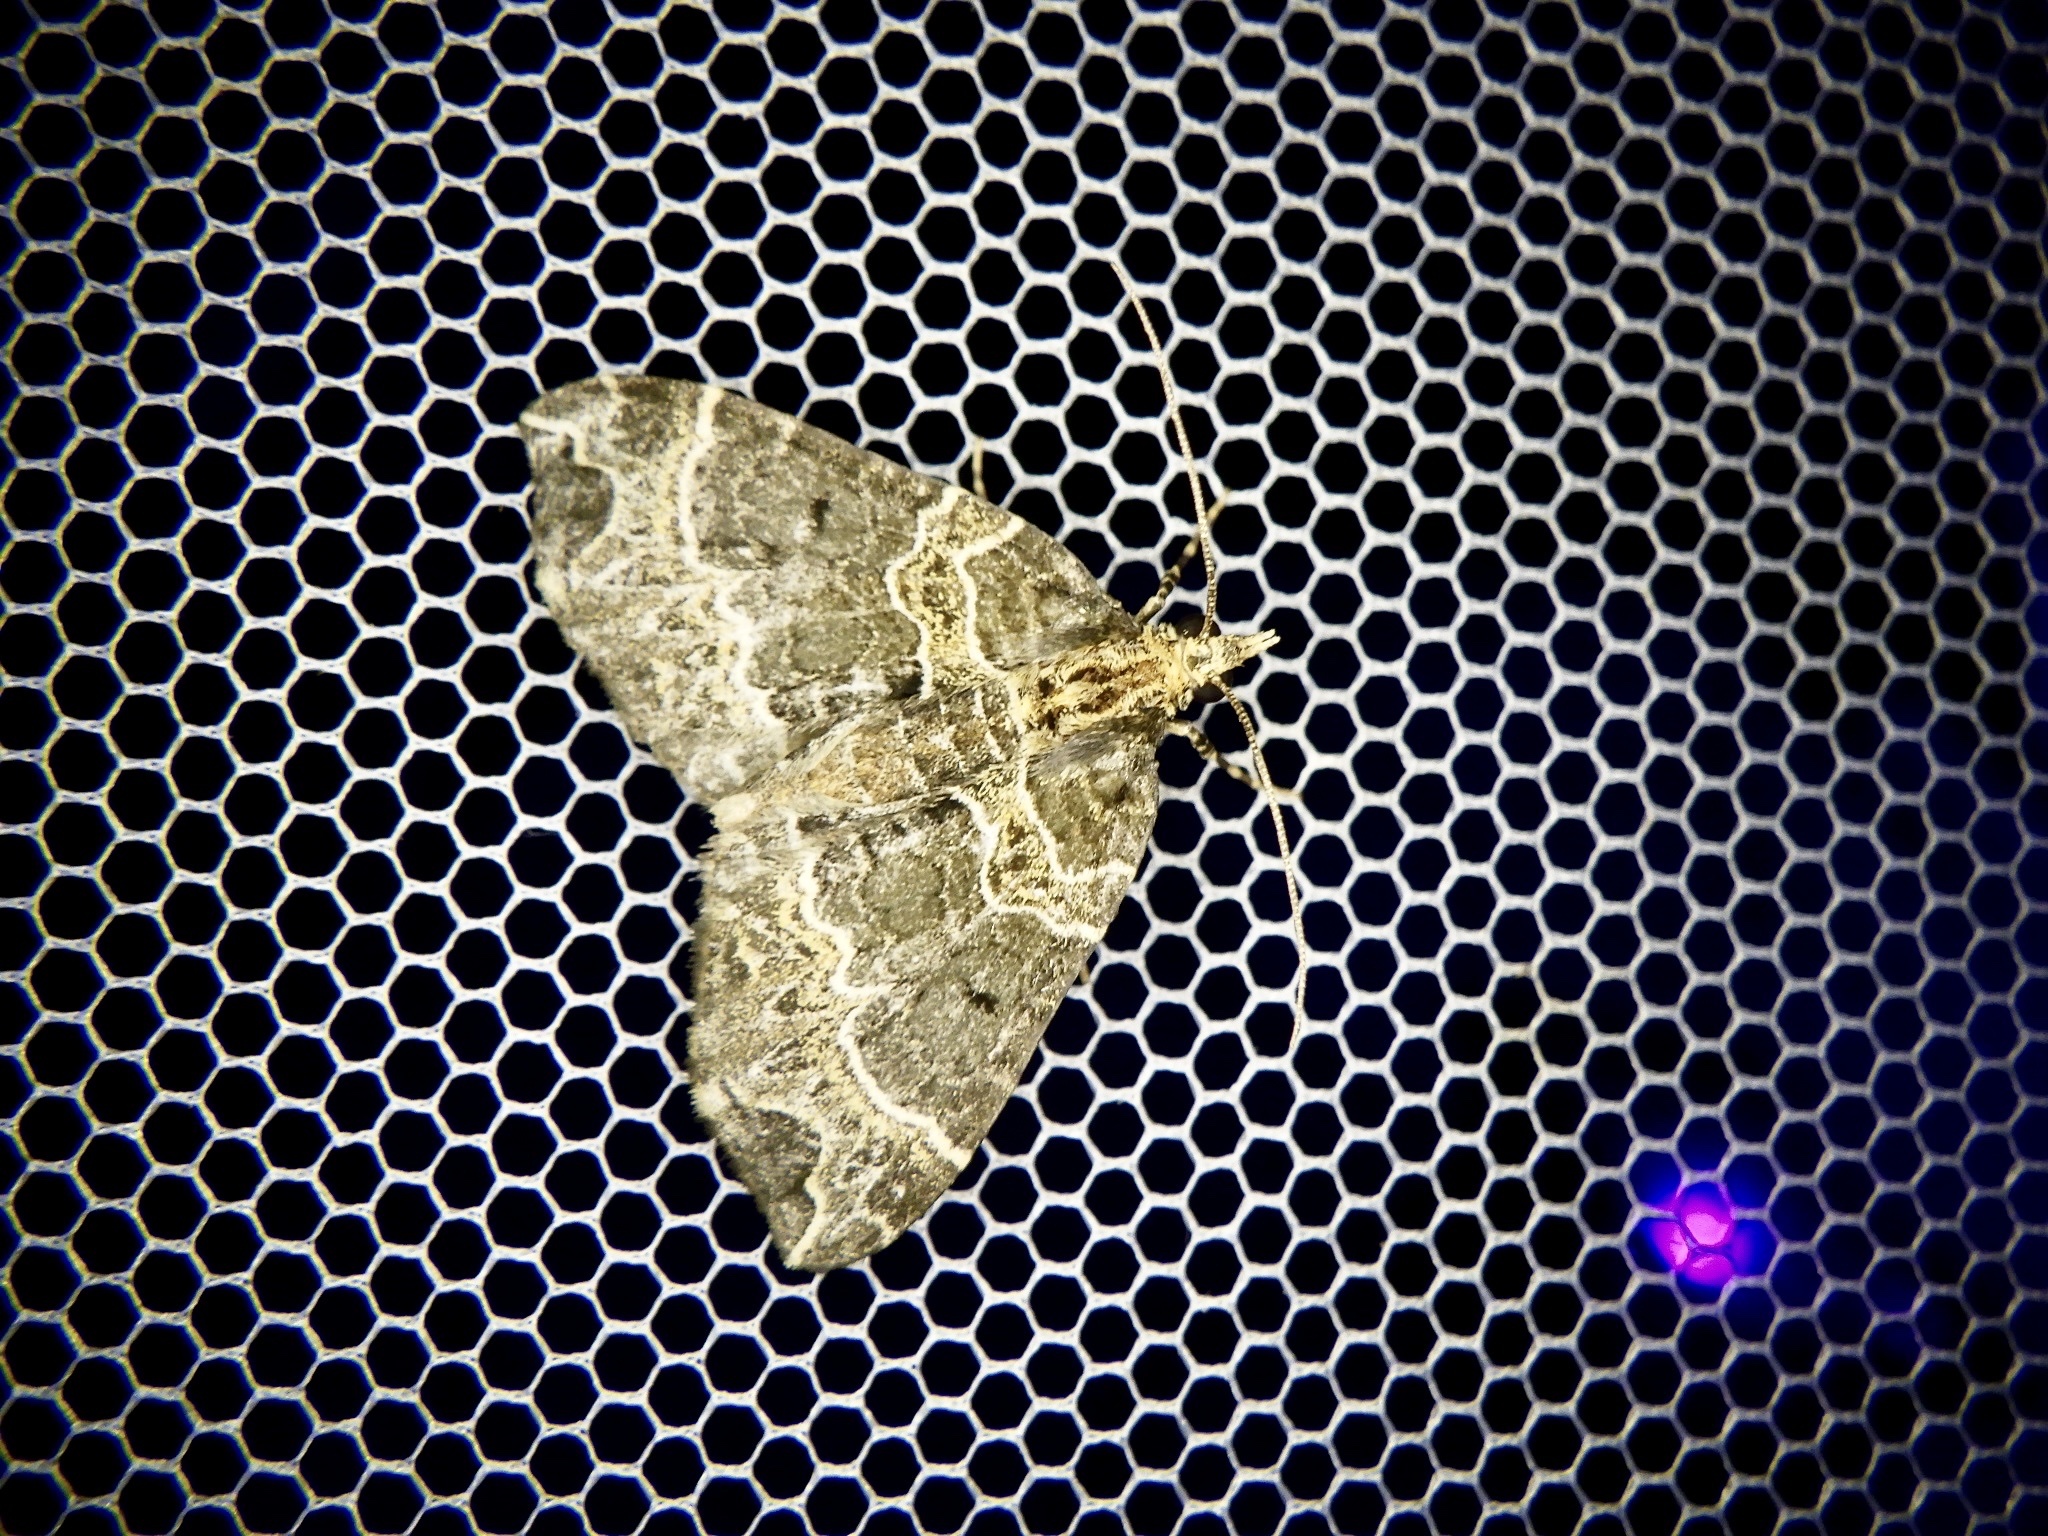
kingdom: Animalia
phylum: Arthropoda
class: Insecta
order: Lepidoptera
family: Geometridae
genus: Ecliptopera
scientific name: Ecliptopera umbrosaria
